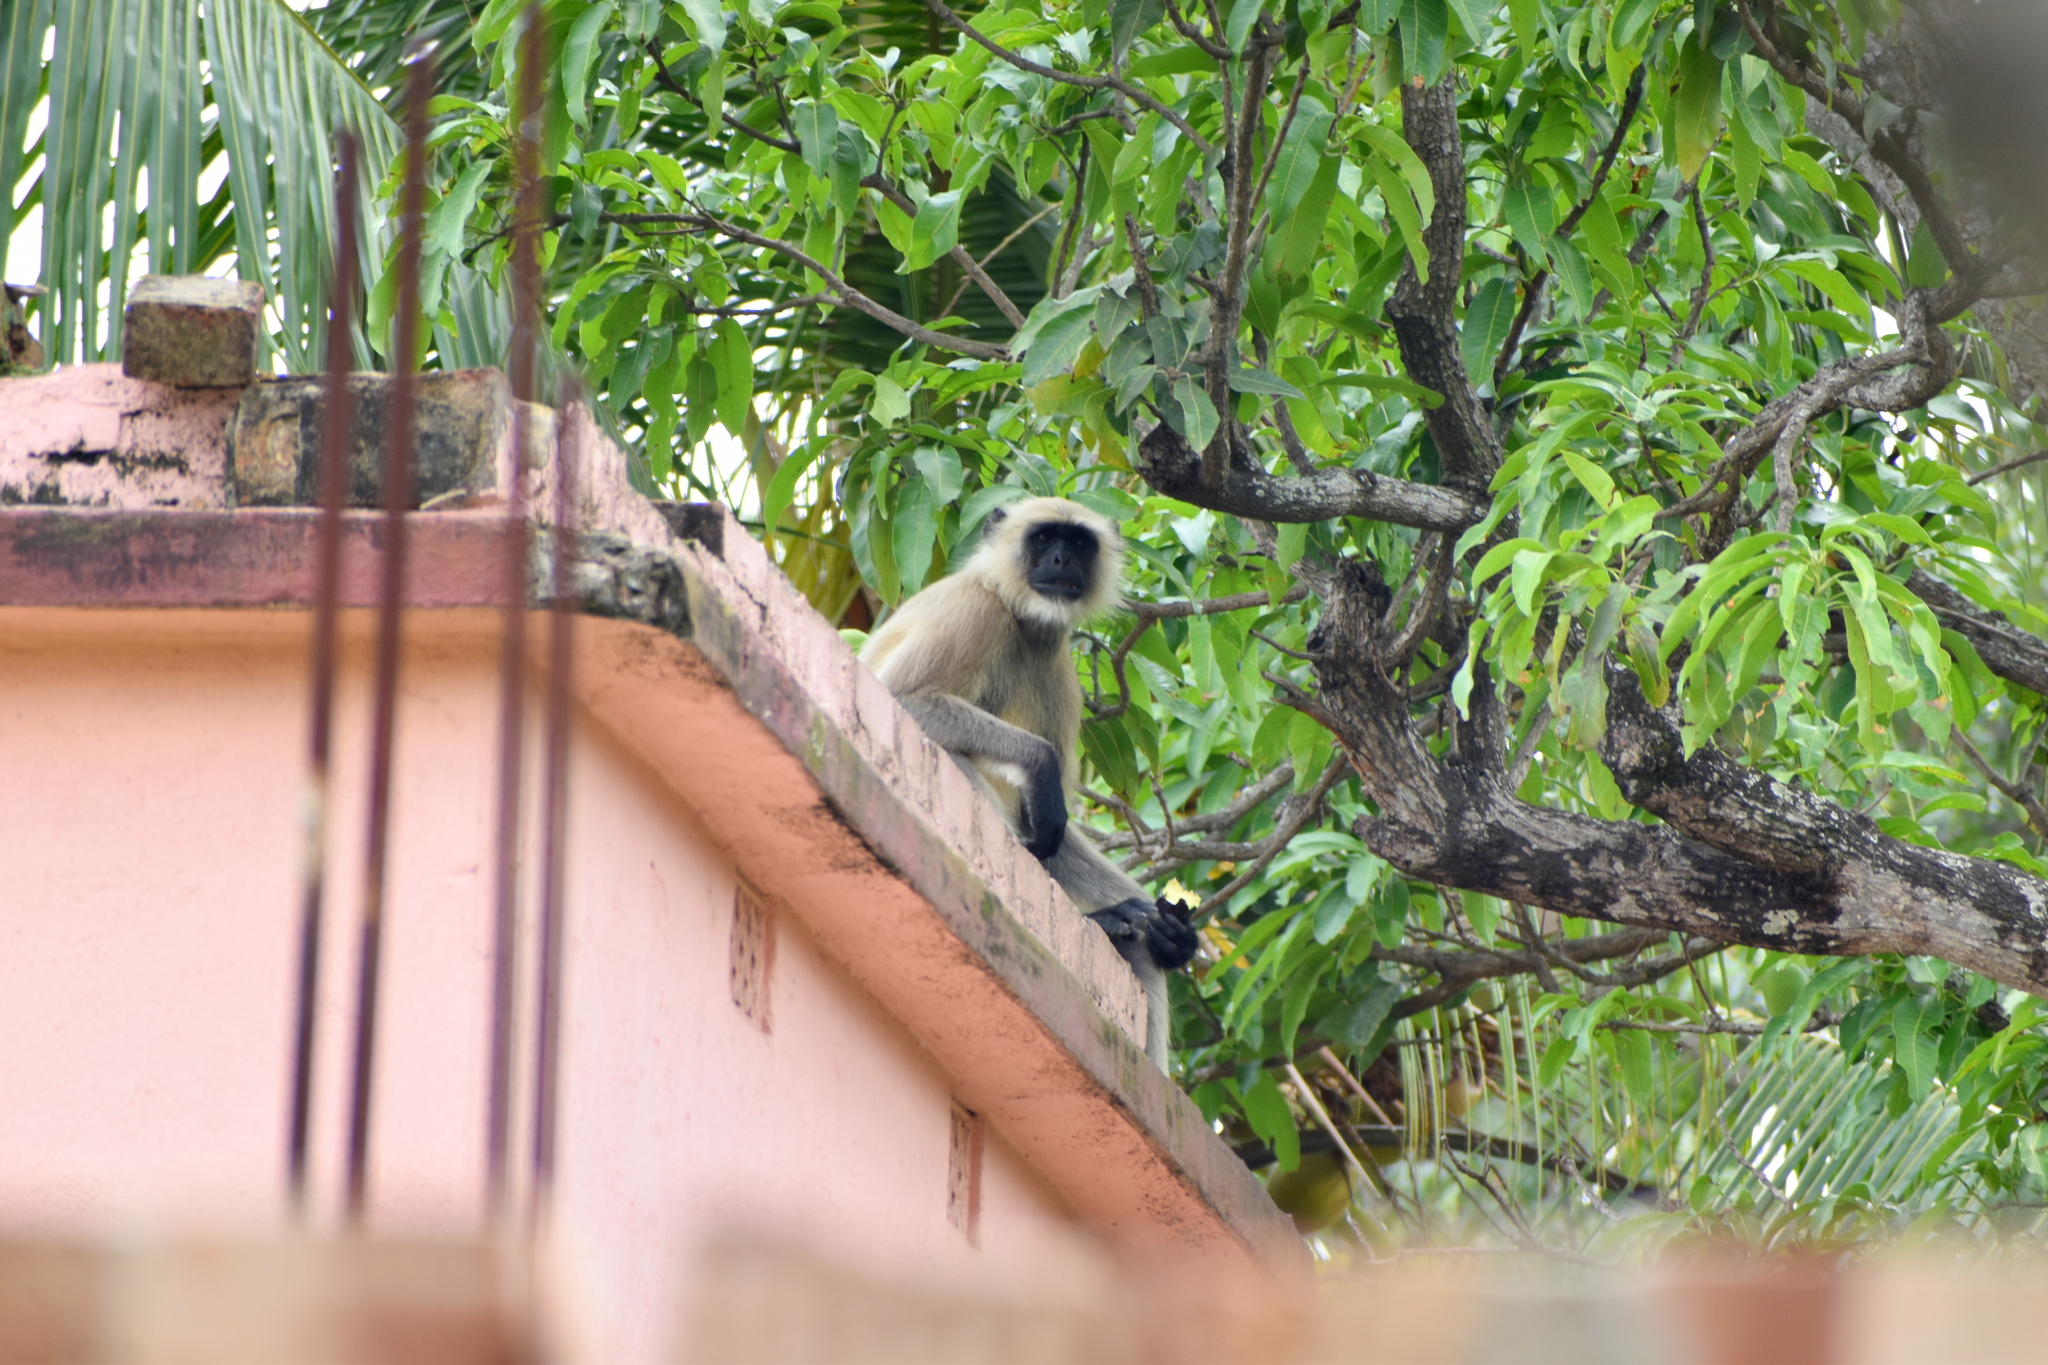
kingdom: Animalia
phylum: Chordata
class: Mammalia
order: Primates
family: Cercopithecidae
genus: Semnopithecus
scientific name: Semnopithecus entellus
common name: Northern plains gray langur
